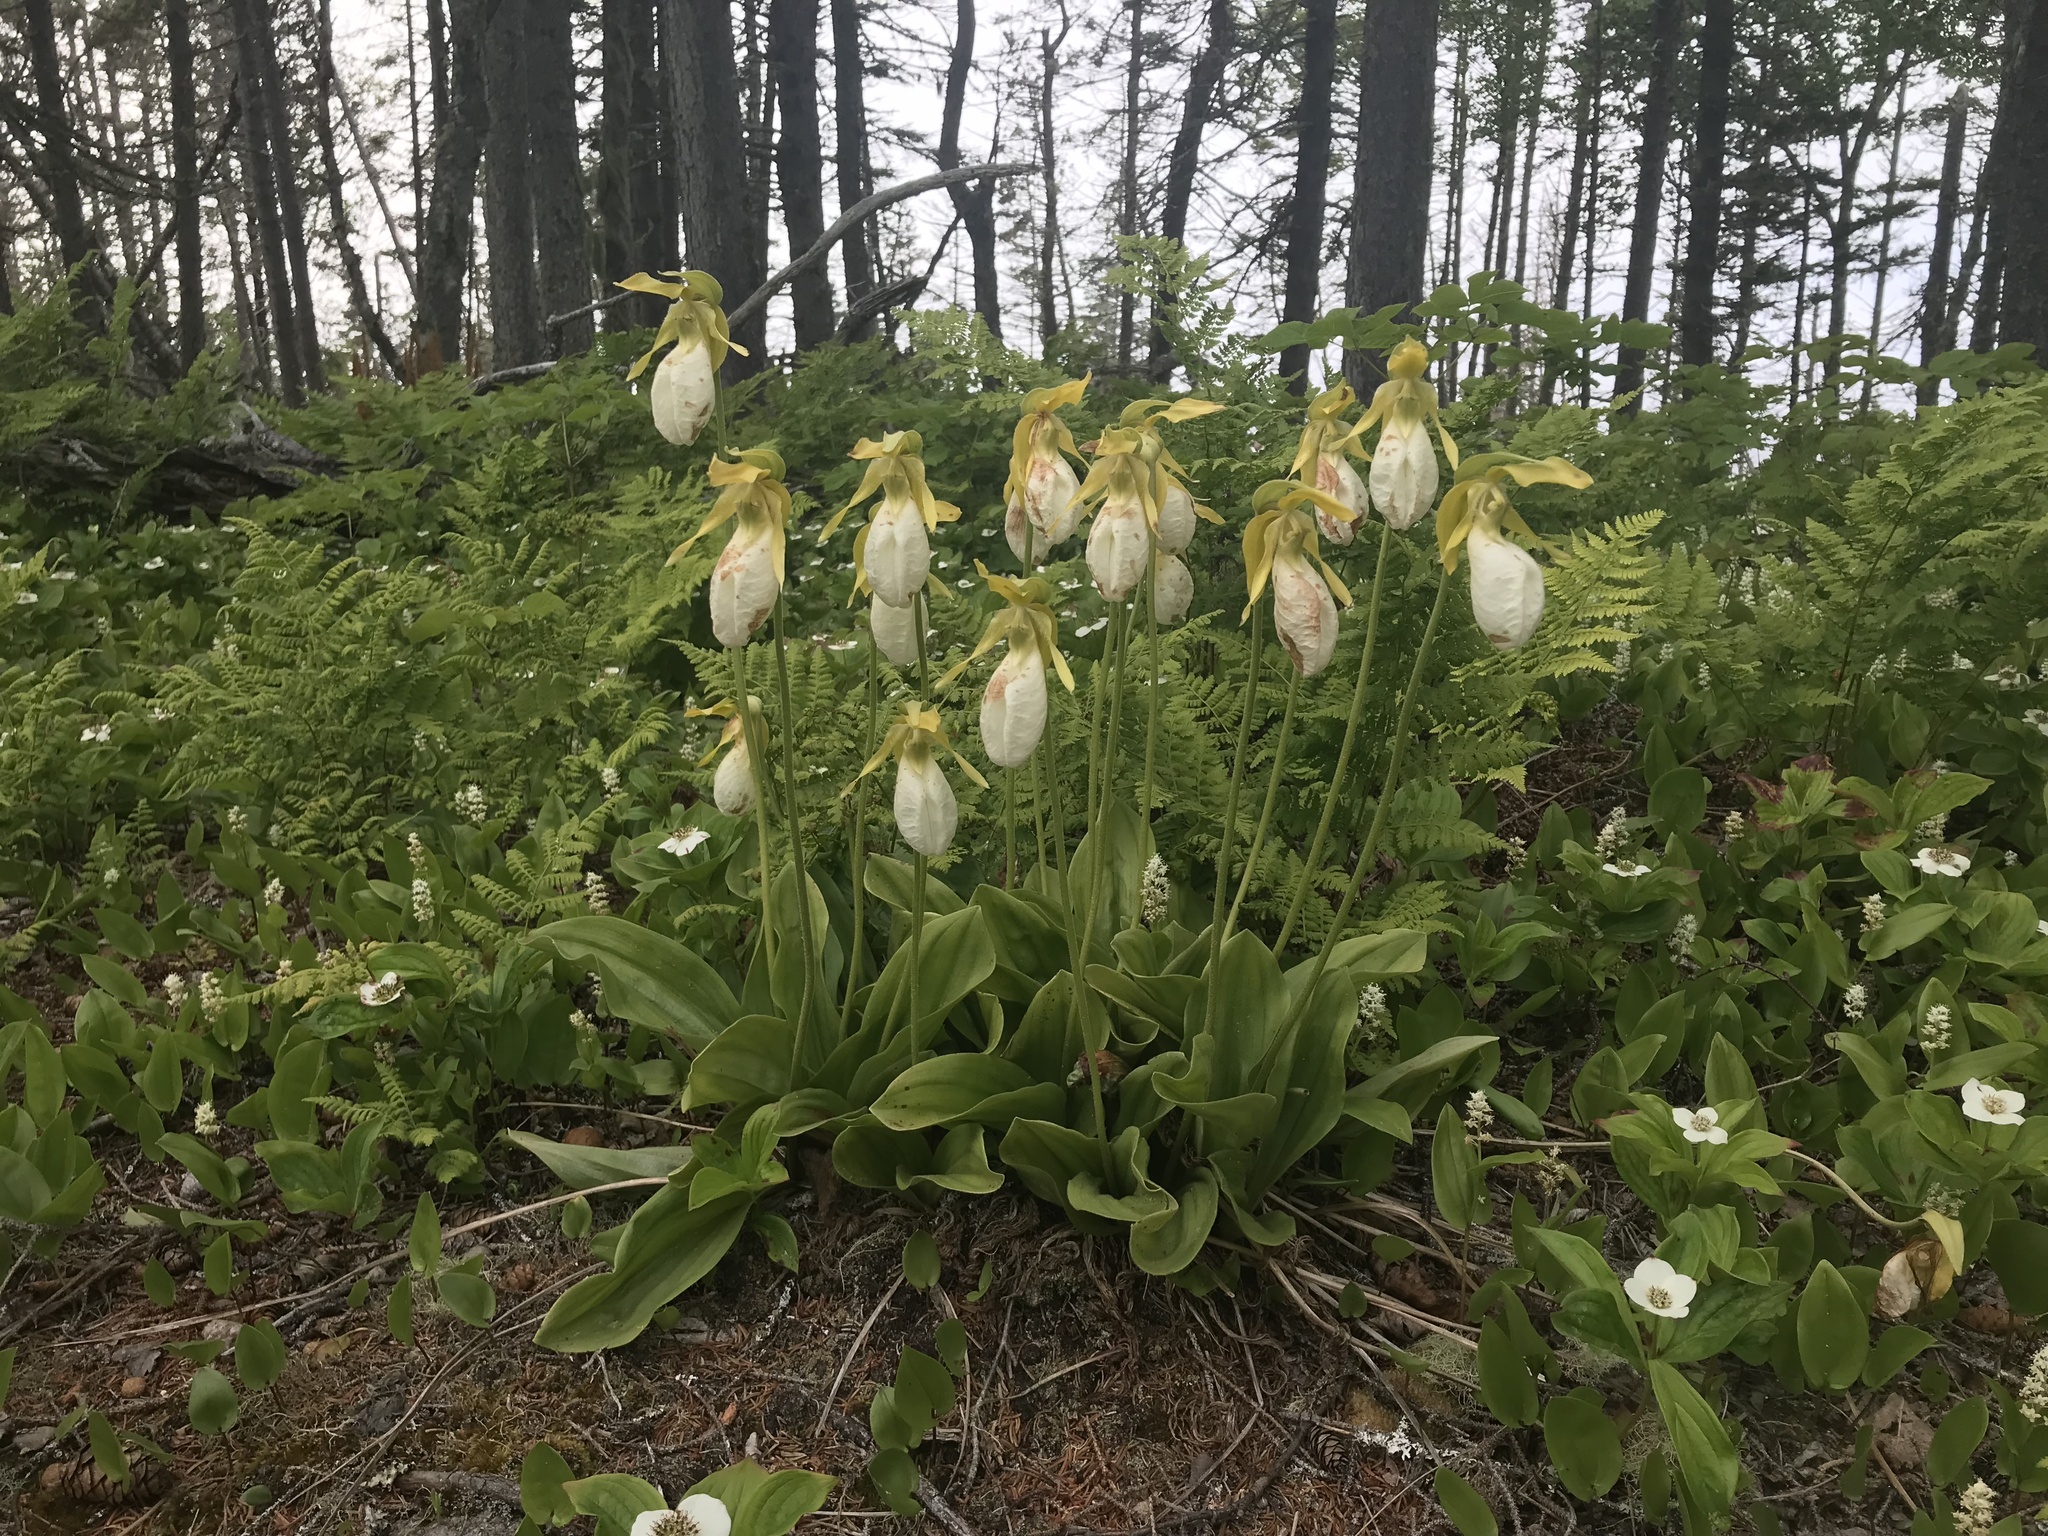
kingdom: Plantae
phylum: Tracheophyta
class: Liliopsida
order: Asparagales
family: Orchidaceae
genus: Cypripedium
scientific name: Cypripedium acaule
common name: Pink lady's-slipper
